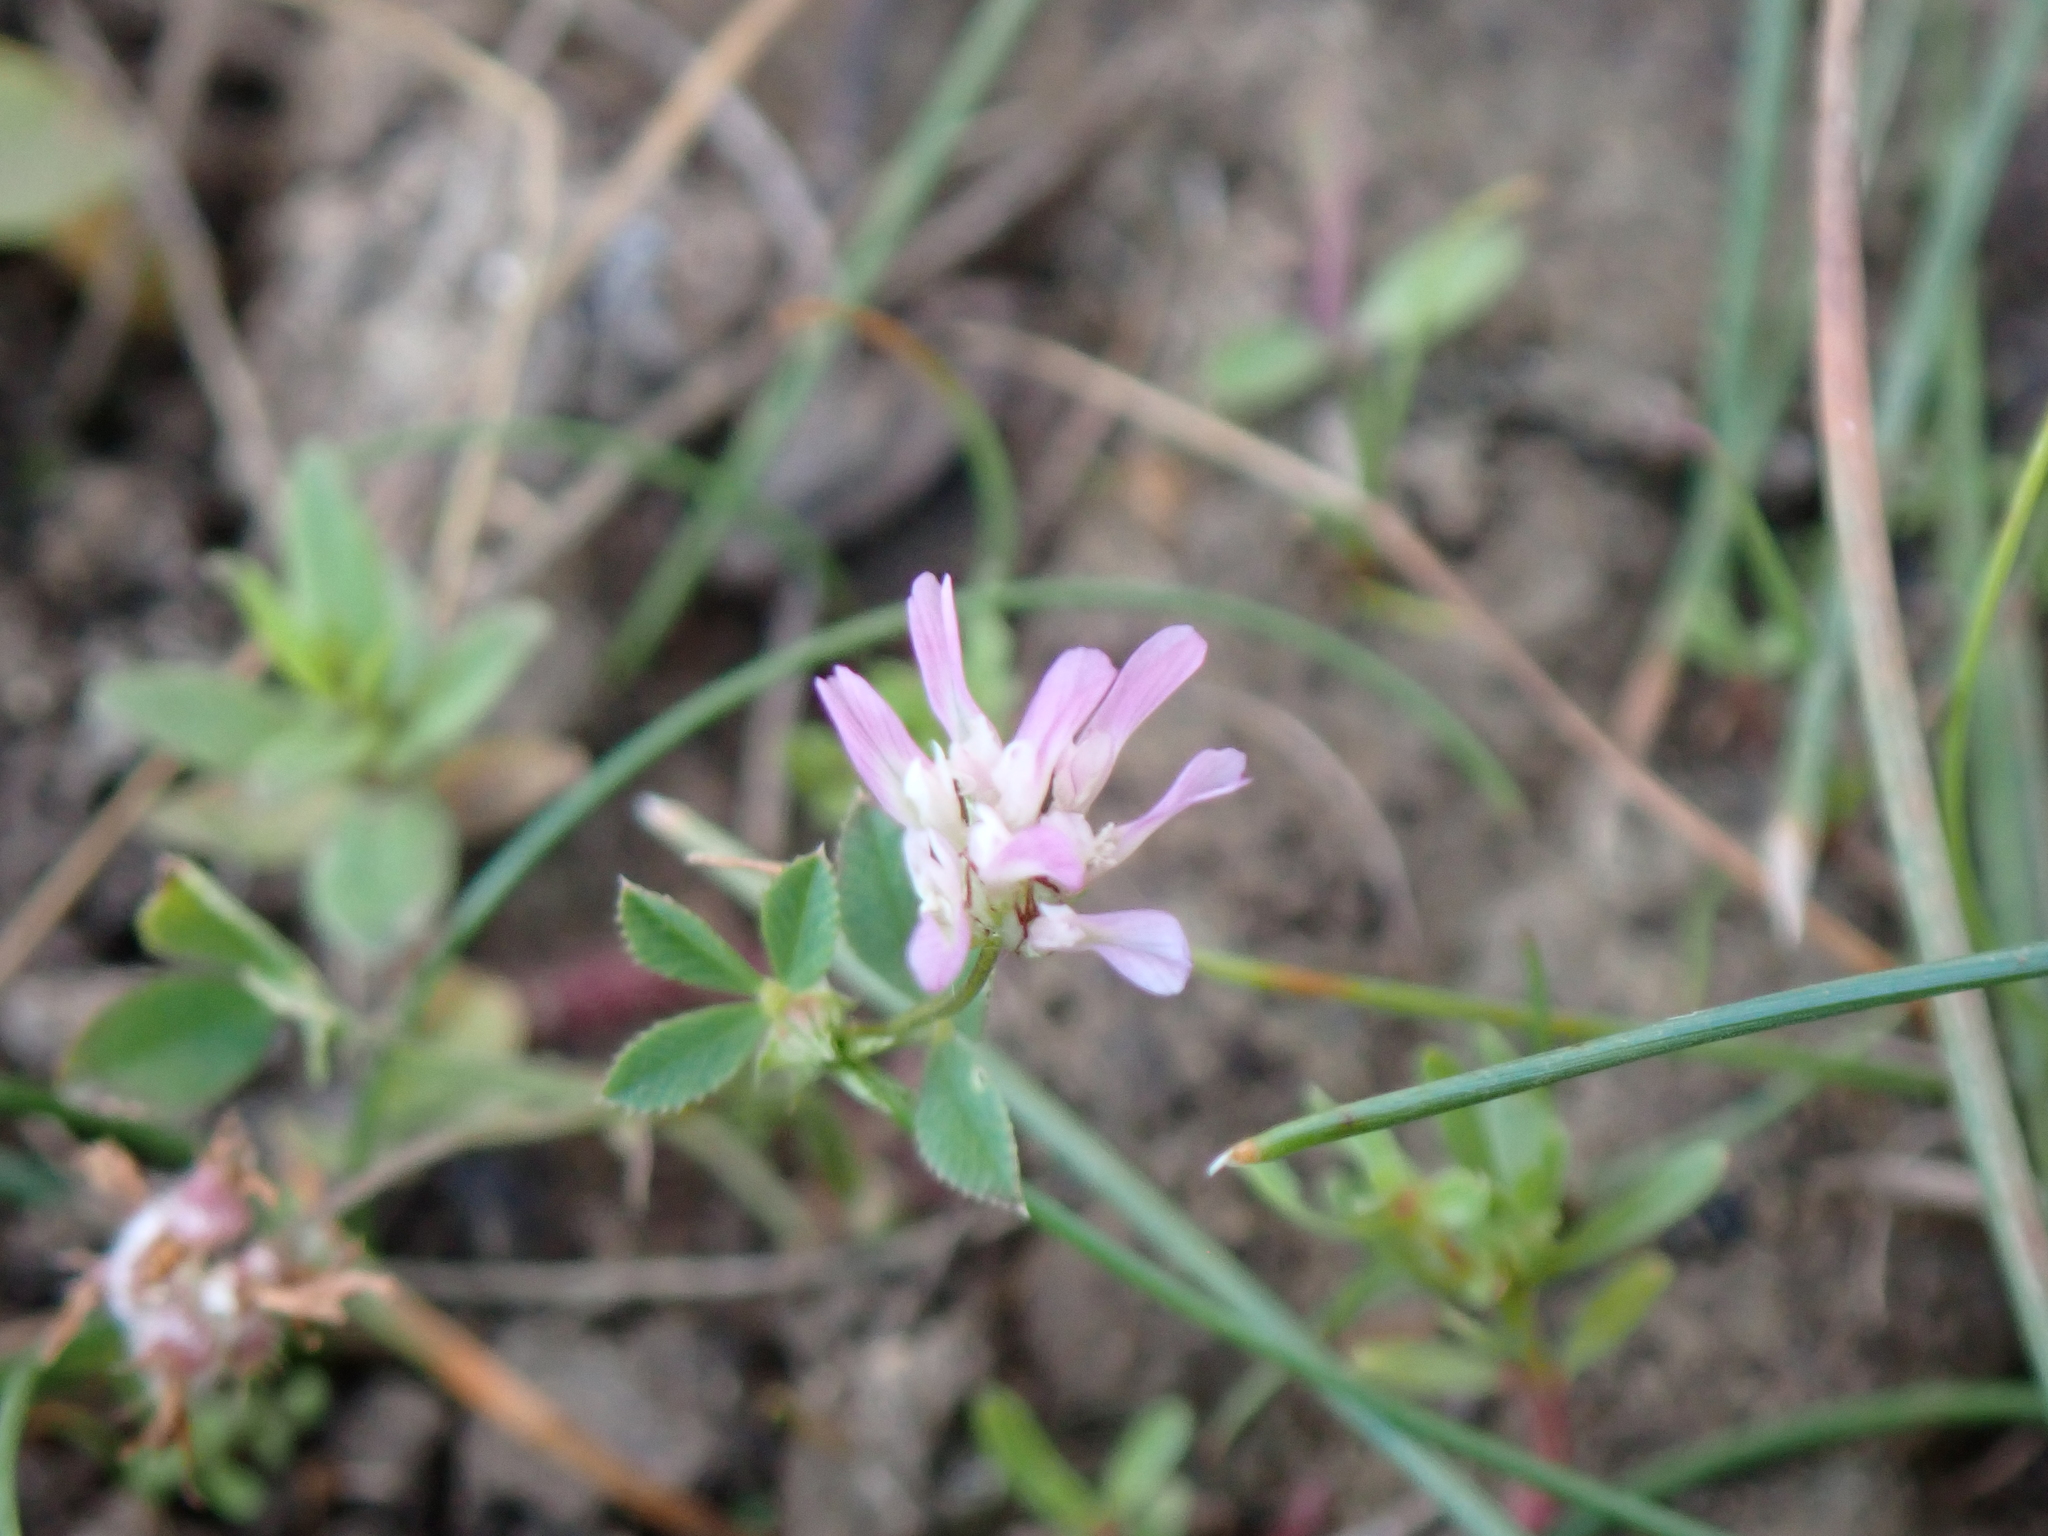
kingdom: Plantae
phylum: Tracheophyta
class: Magnoliopsida
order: Fabales
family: Fabaceae
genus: Trifolium
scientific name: Trifolium resupinatum
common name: Reversed clover
